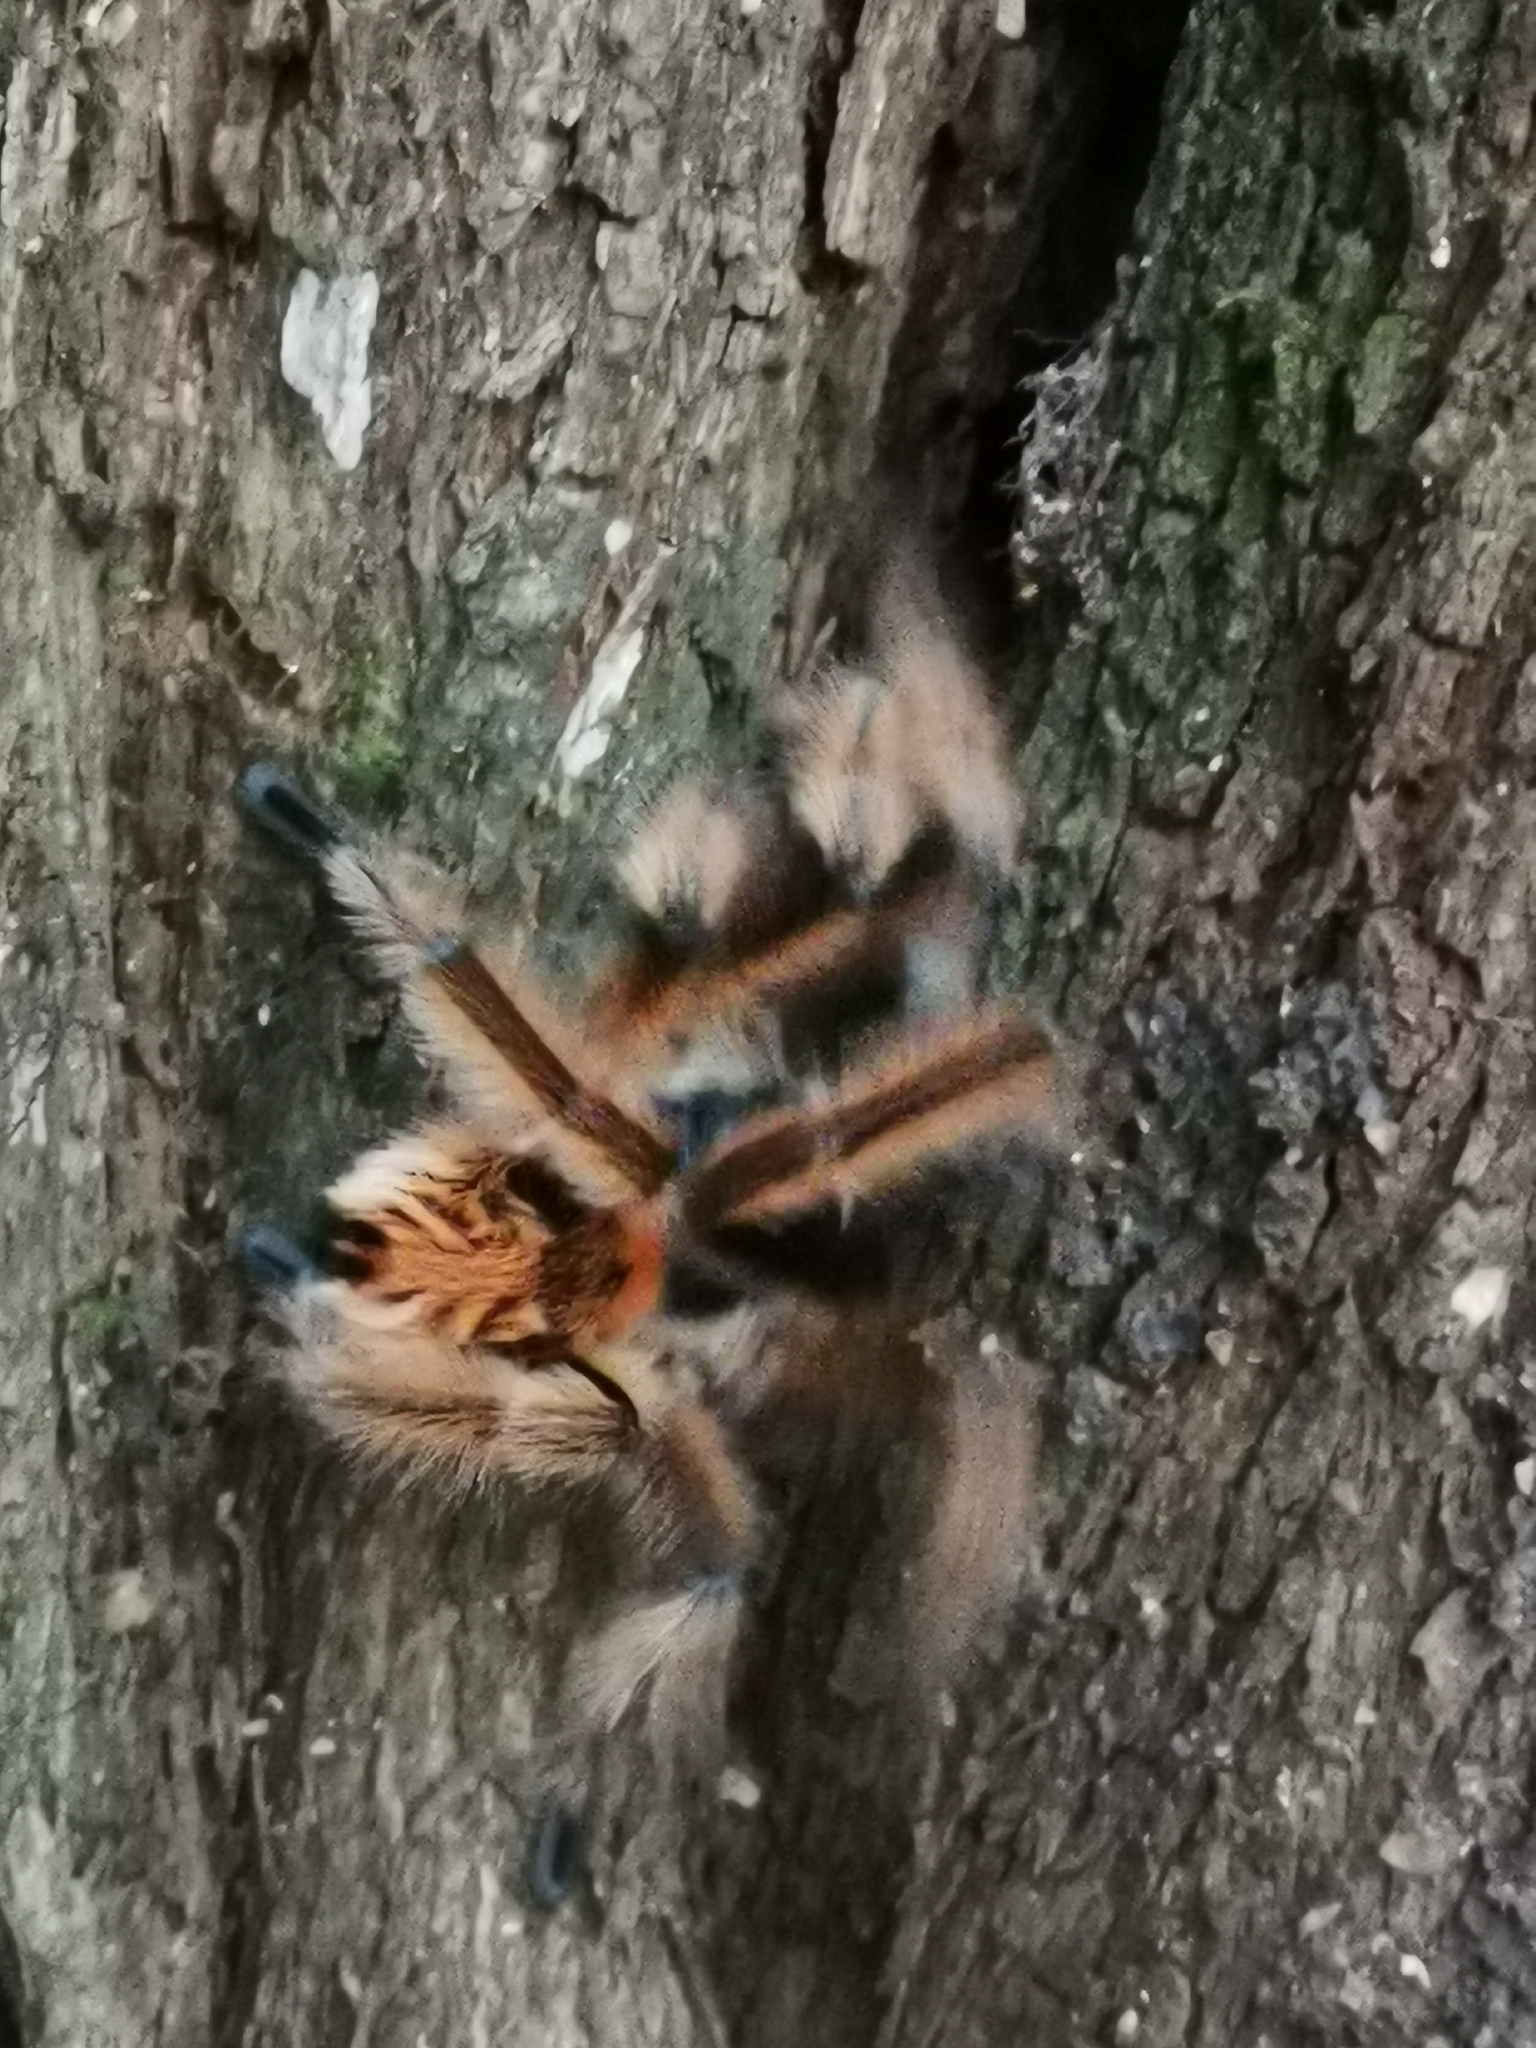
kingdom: Animalia
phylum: Arthropoda
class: Arachnida
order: Araneae
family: Theraphosidae
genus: Phrixotrichus
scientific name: Phrixotrichus vulpinus
